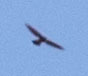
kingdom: Animalia
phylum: Chordata
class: Aves
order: Accipitriformes
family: Accipitridae
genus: Accipiter
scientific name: Accipiter
